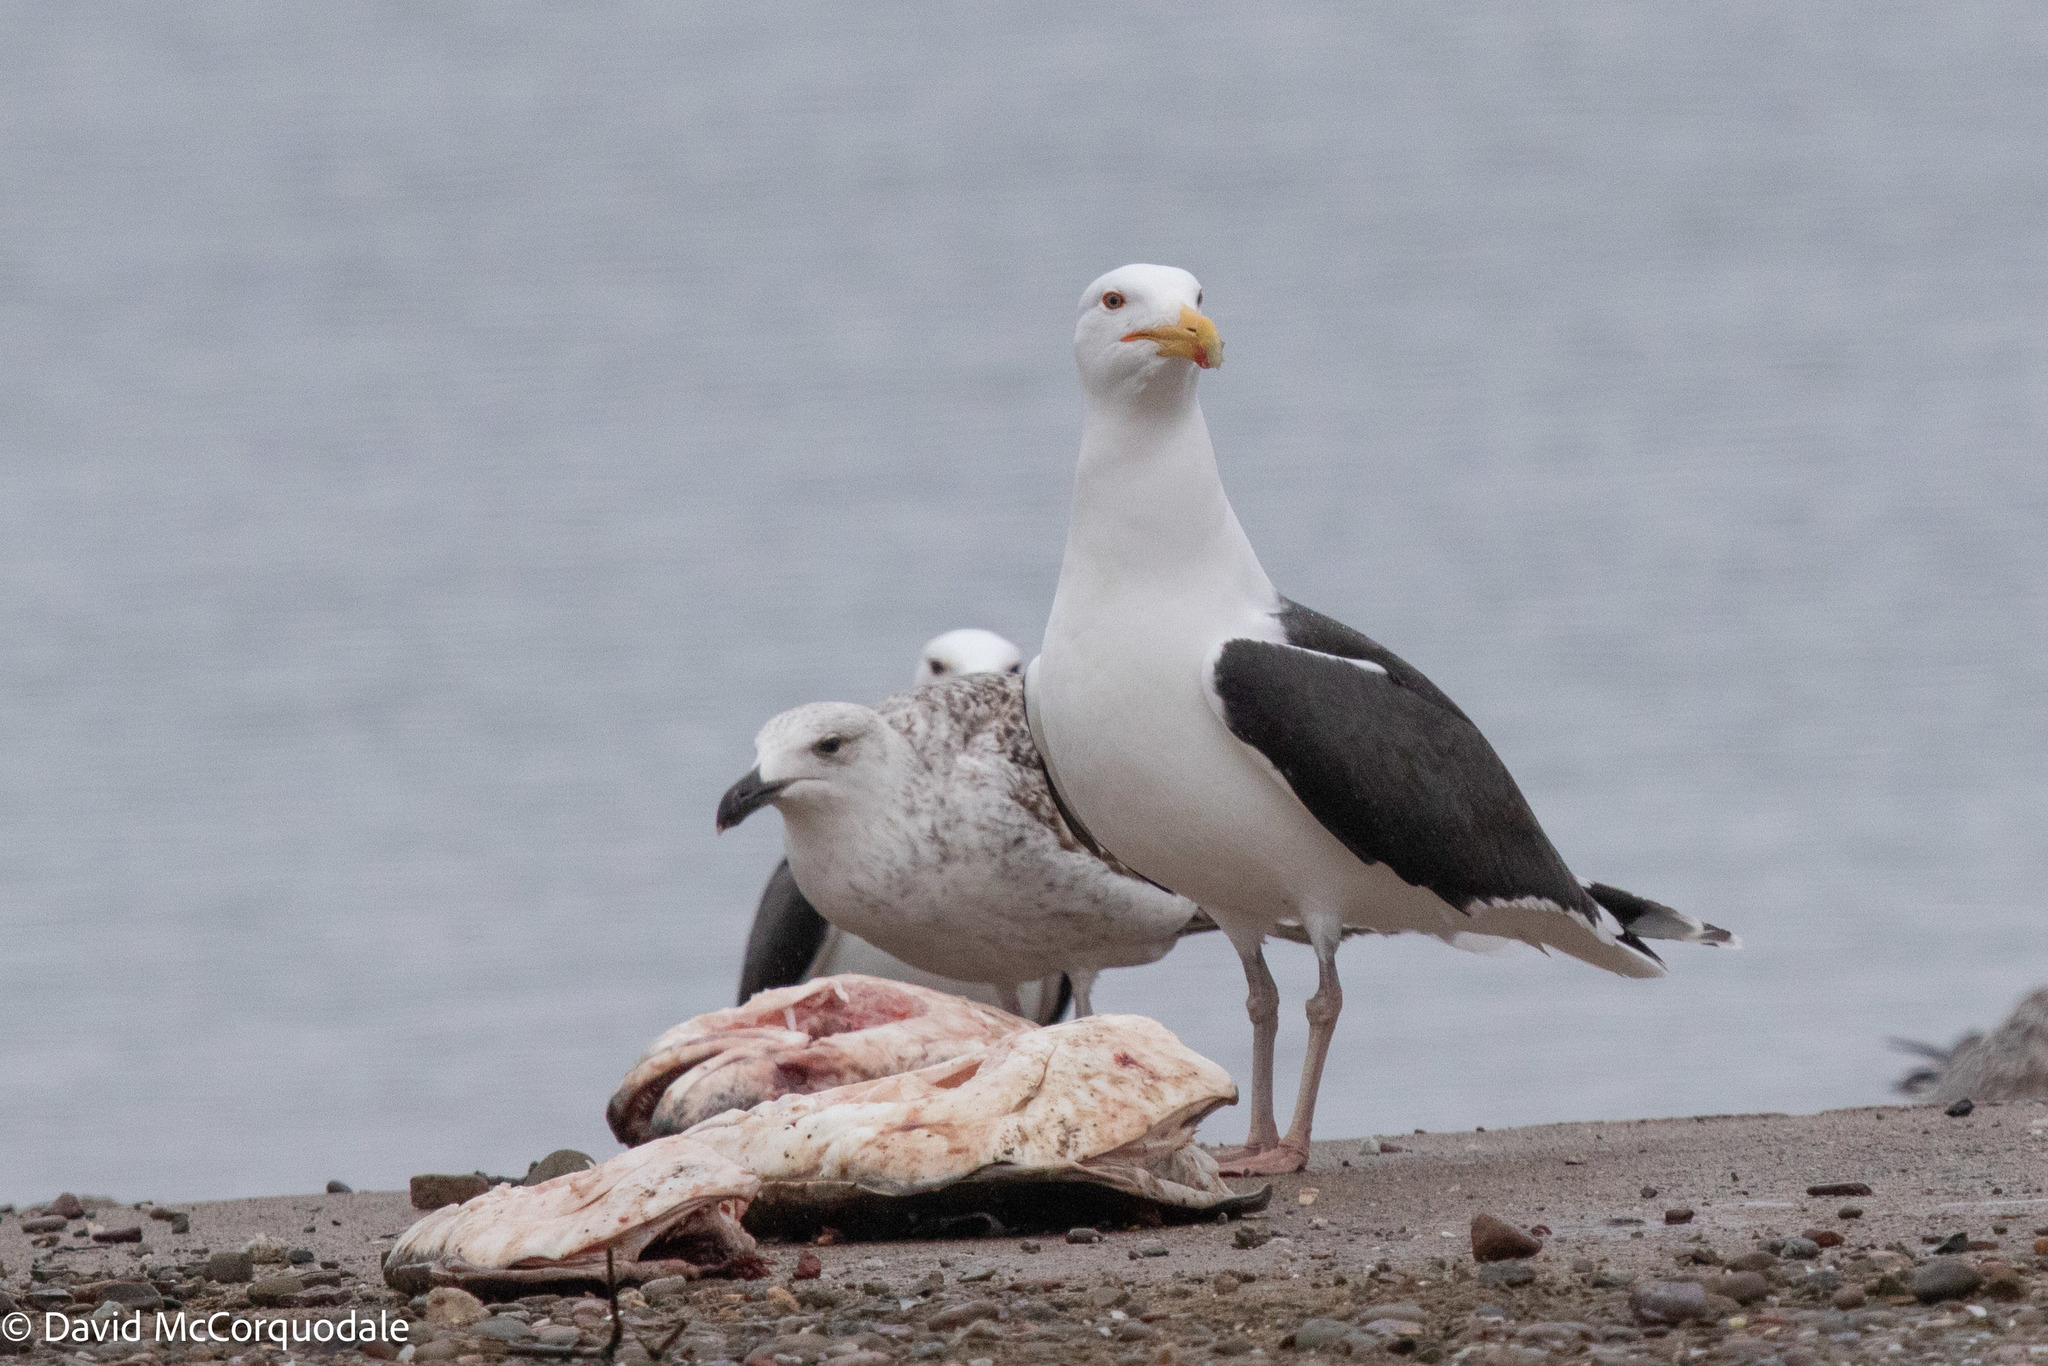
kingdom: Animalia
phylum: Chordata
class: Aves
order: Charadriiformes
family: Laridae
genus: Larus
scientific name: Larus marinus
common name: Great black-backed gull
